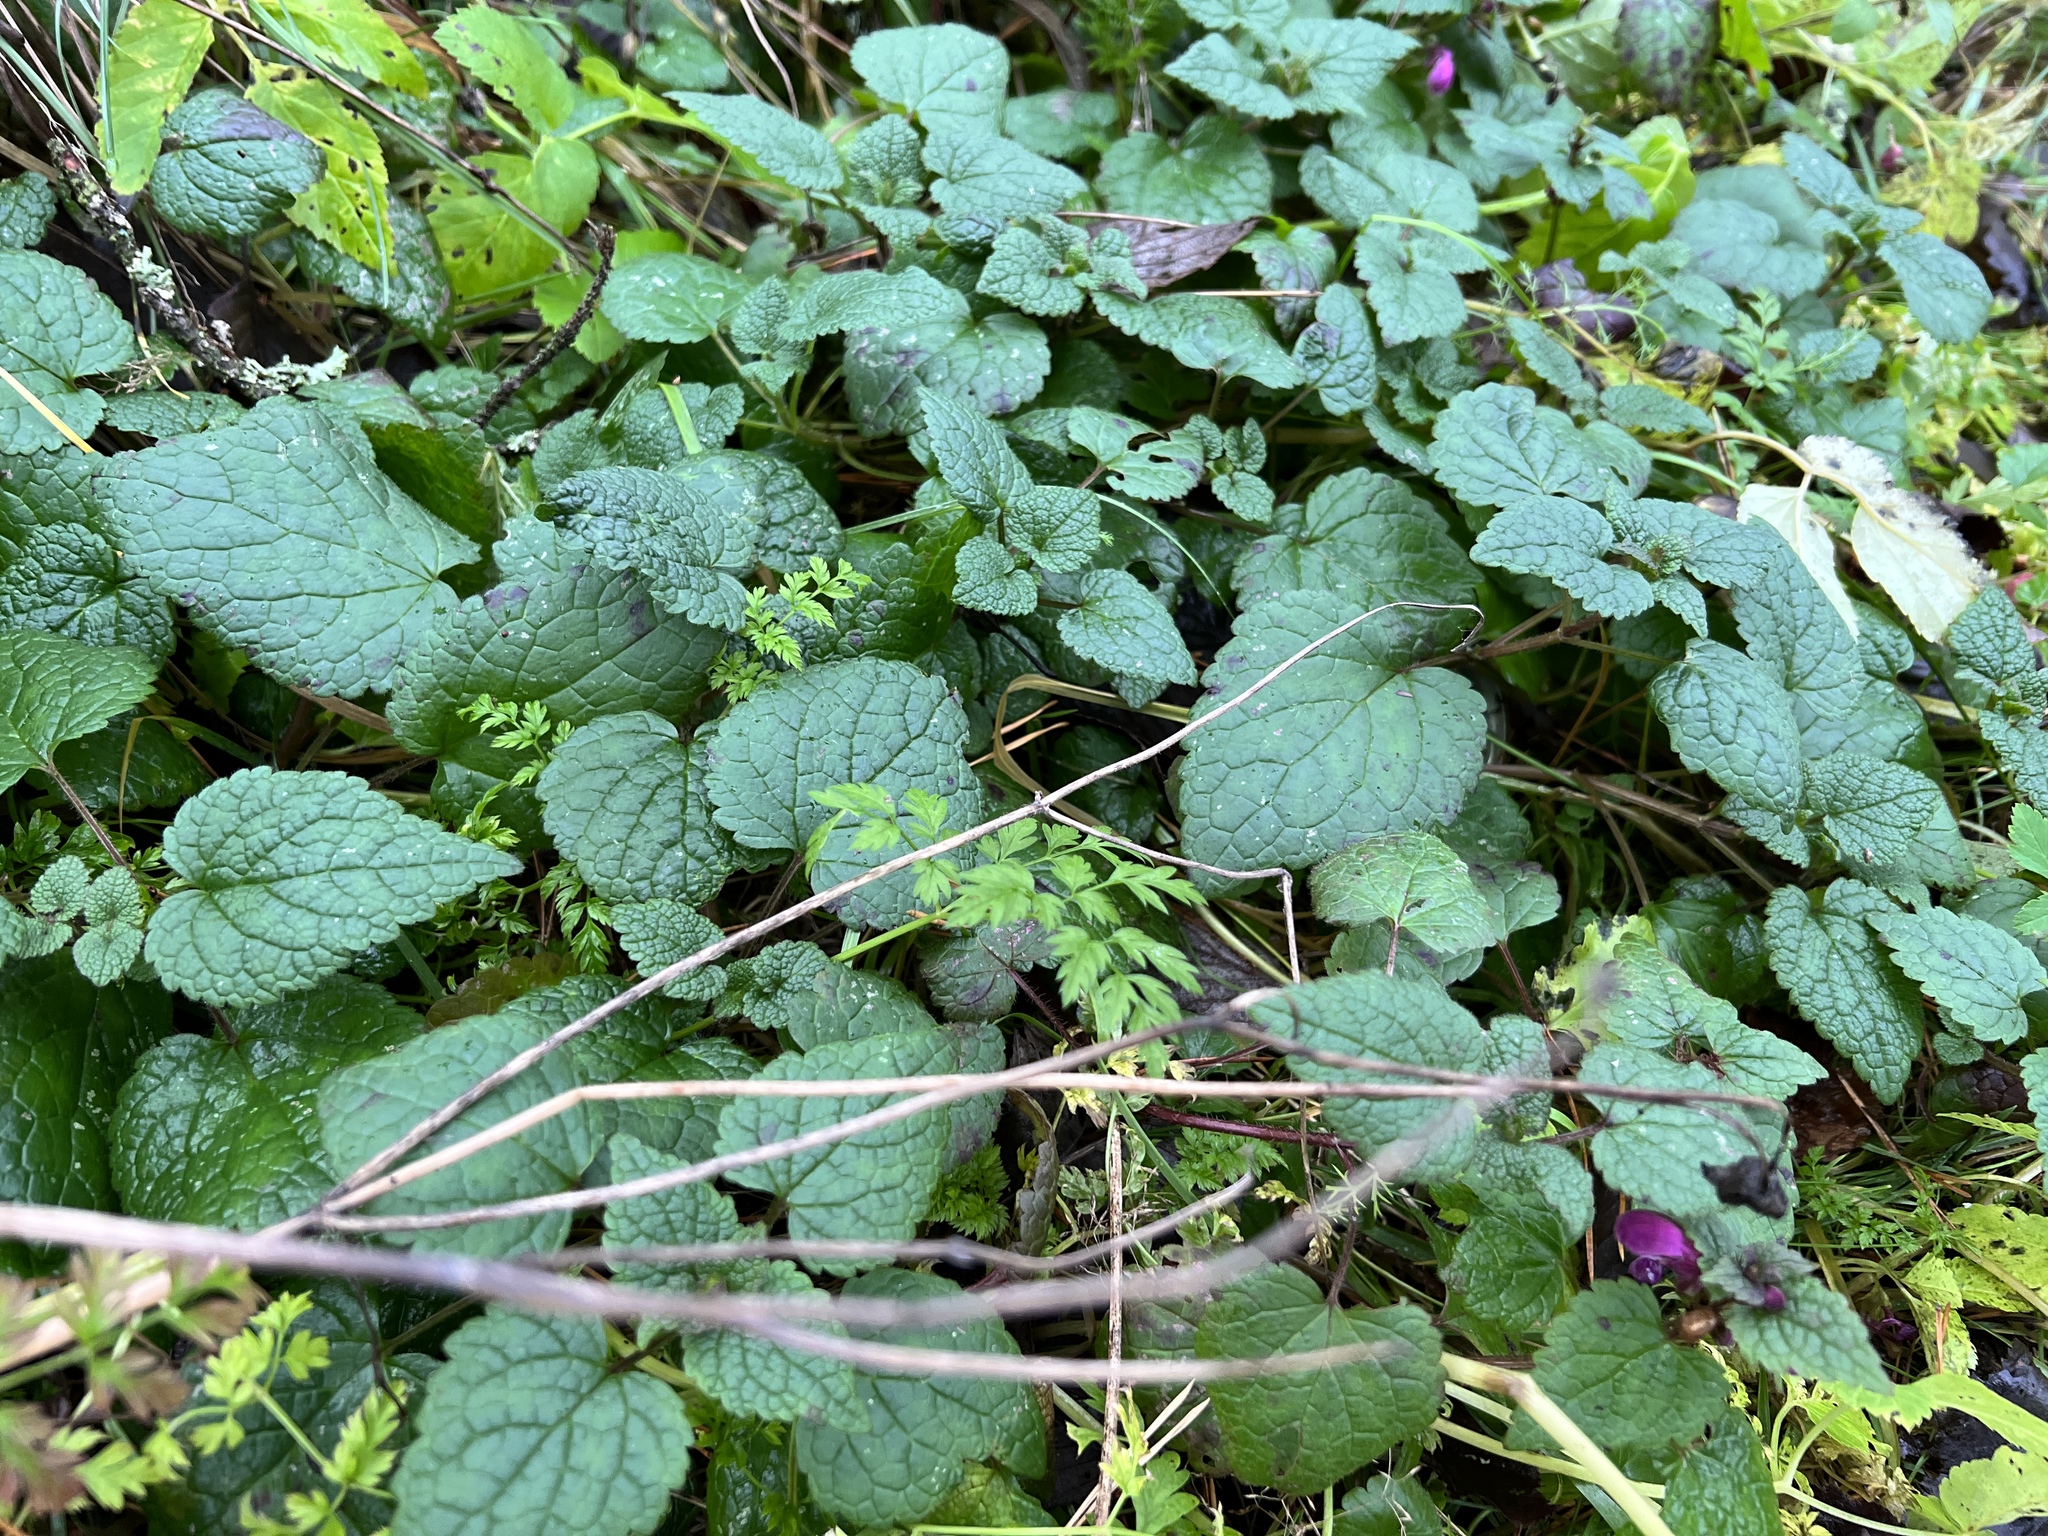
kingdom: Plantae
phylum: Tracheophyta
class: Magnoliopsida
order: Lamiales
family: Lamiaceae
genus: Lamium
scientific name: Lamium maculatum
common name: Spotted dead-nettle
